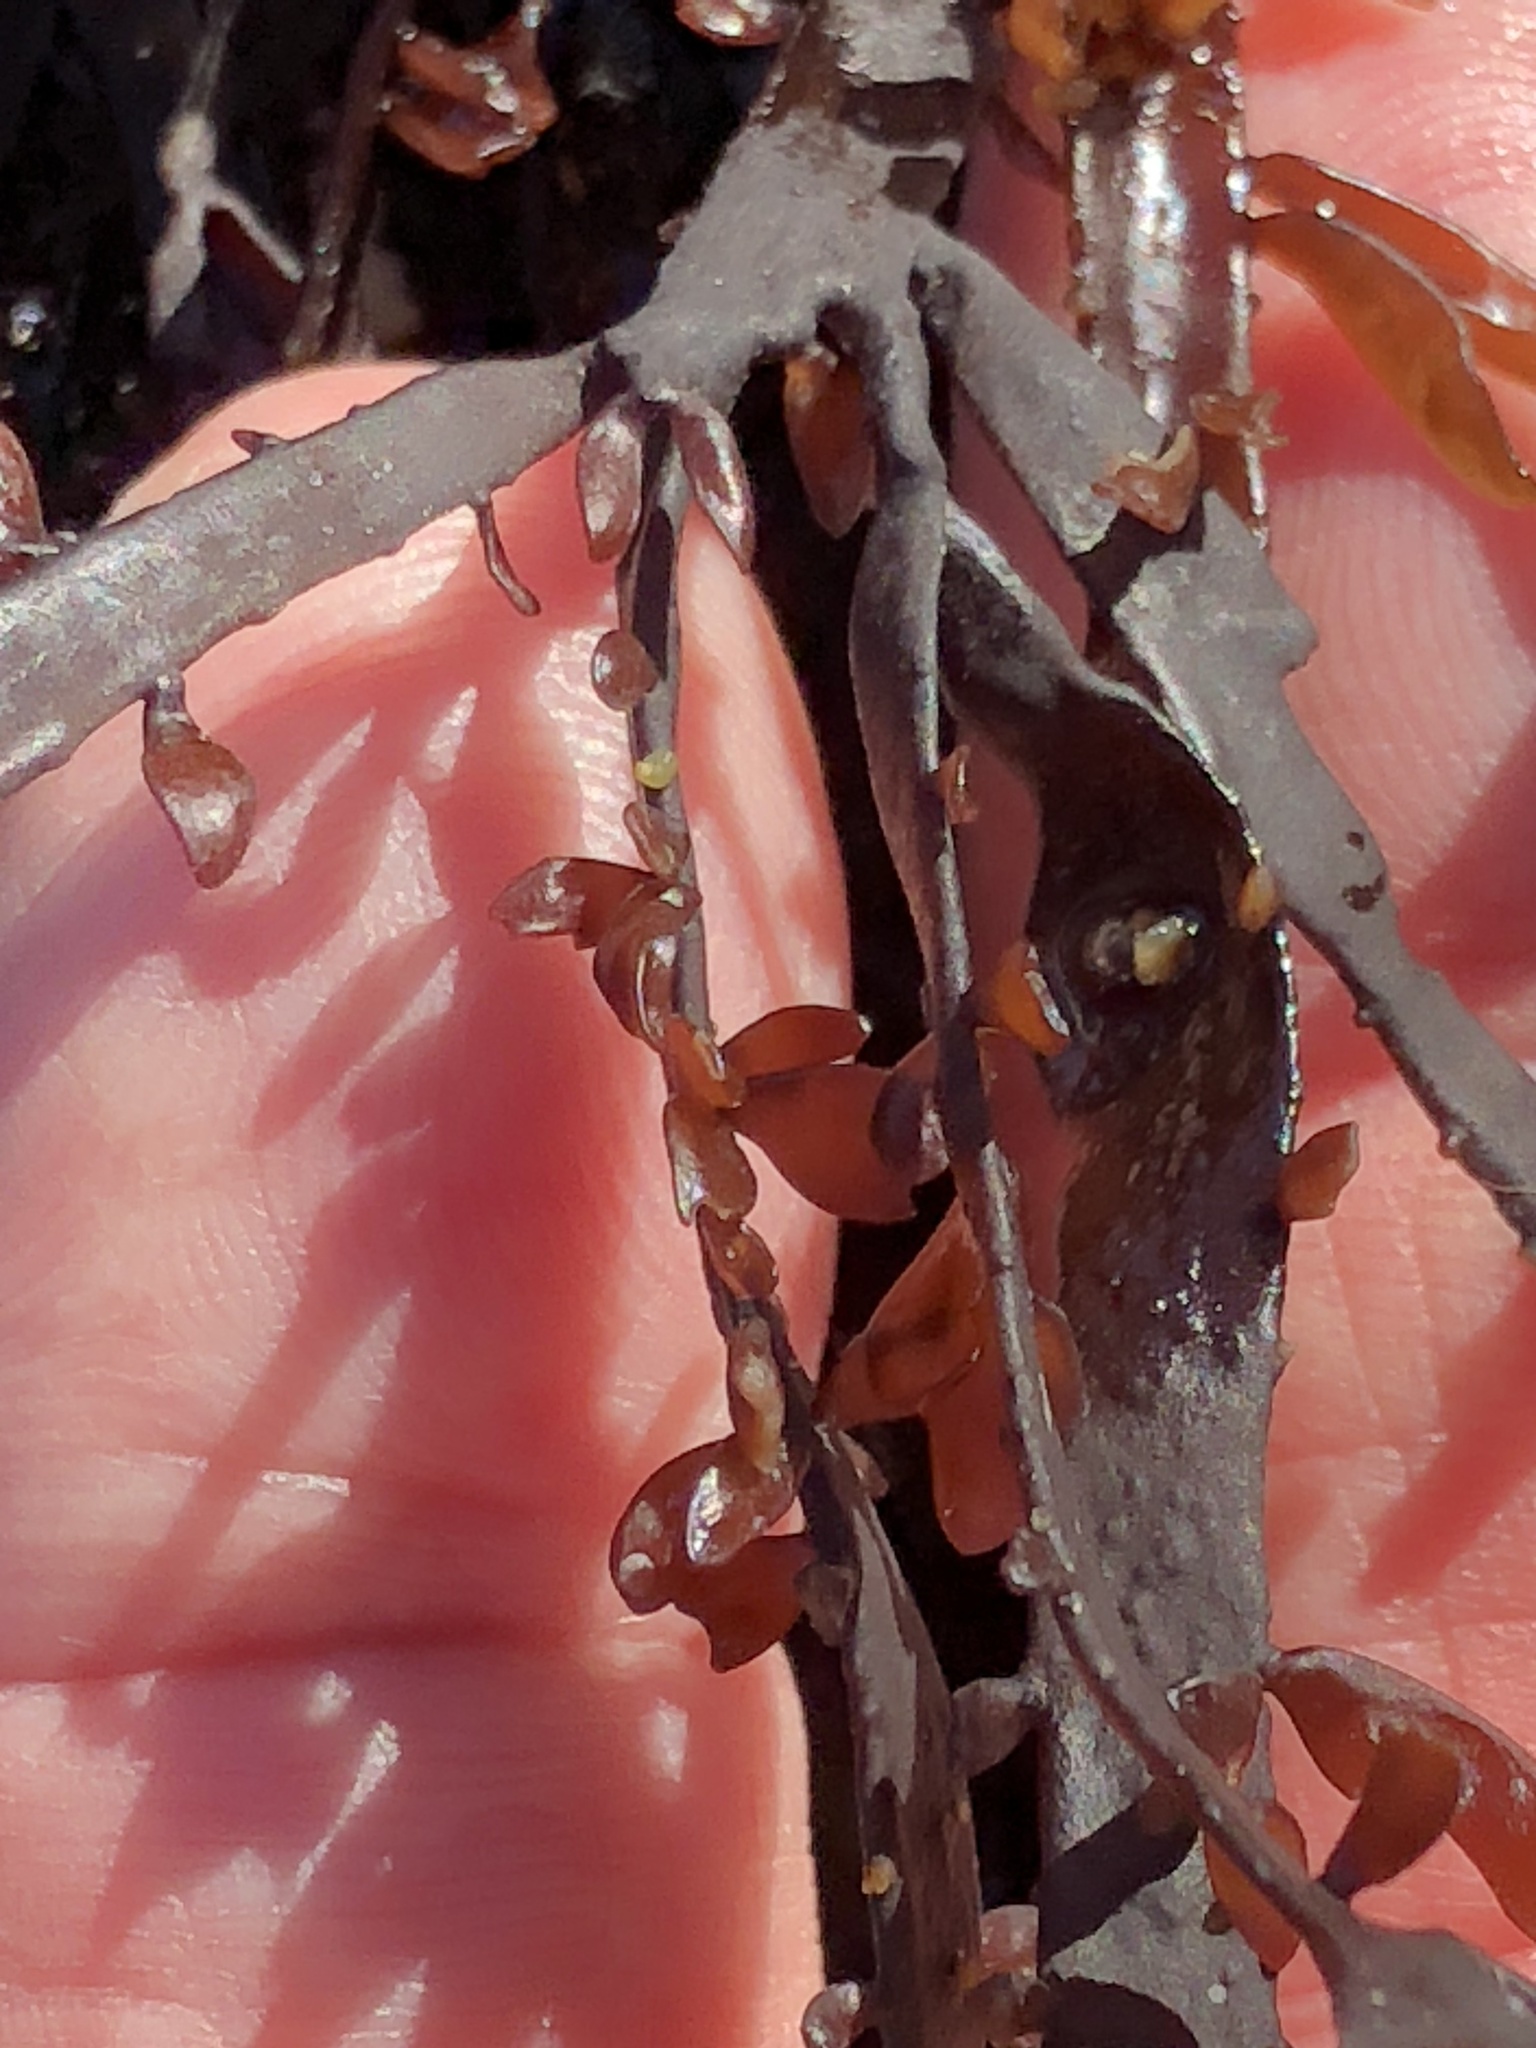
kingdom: Plantae
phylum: Rhodophyta
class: Florideophyceae
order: Halymeniales
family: Halymeniaceae
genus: Grateloupia
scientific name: Grateloupia Prionitis lanceolata
